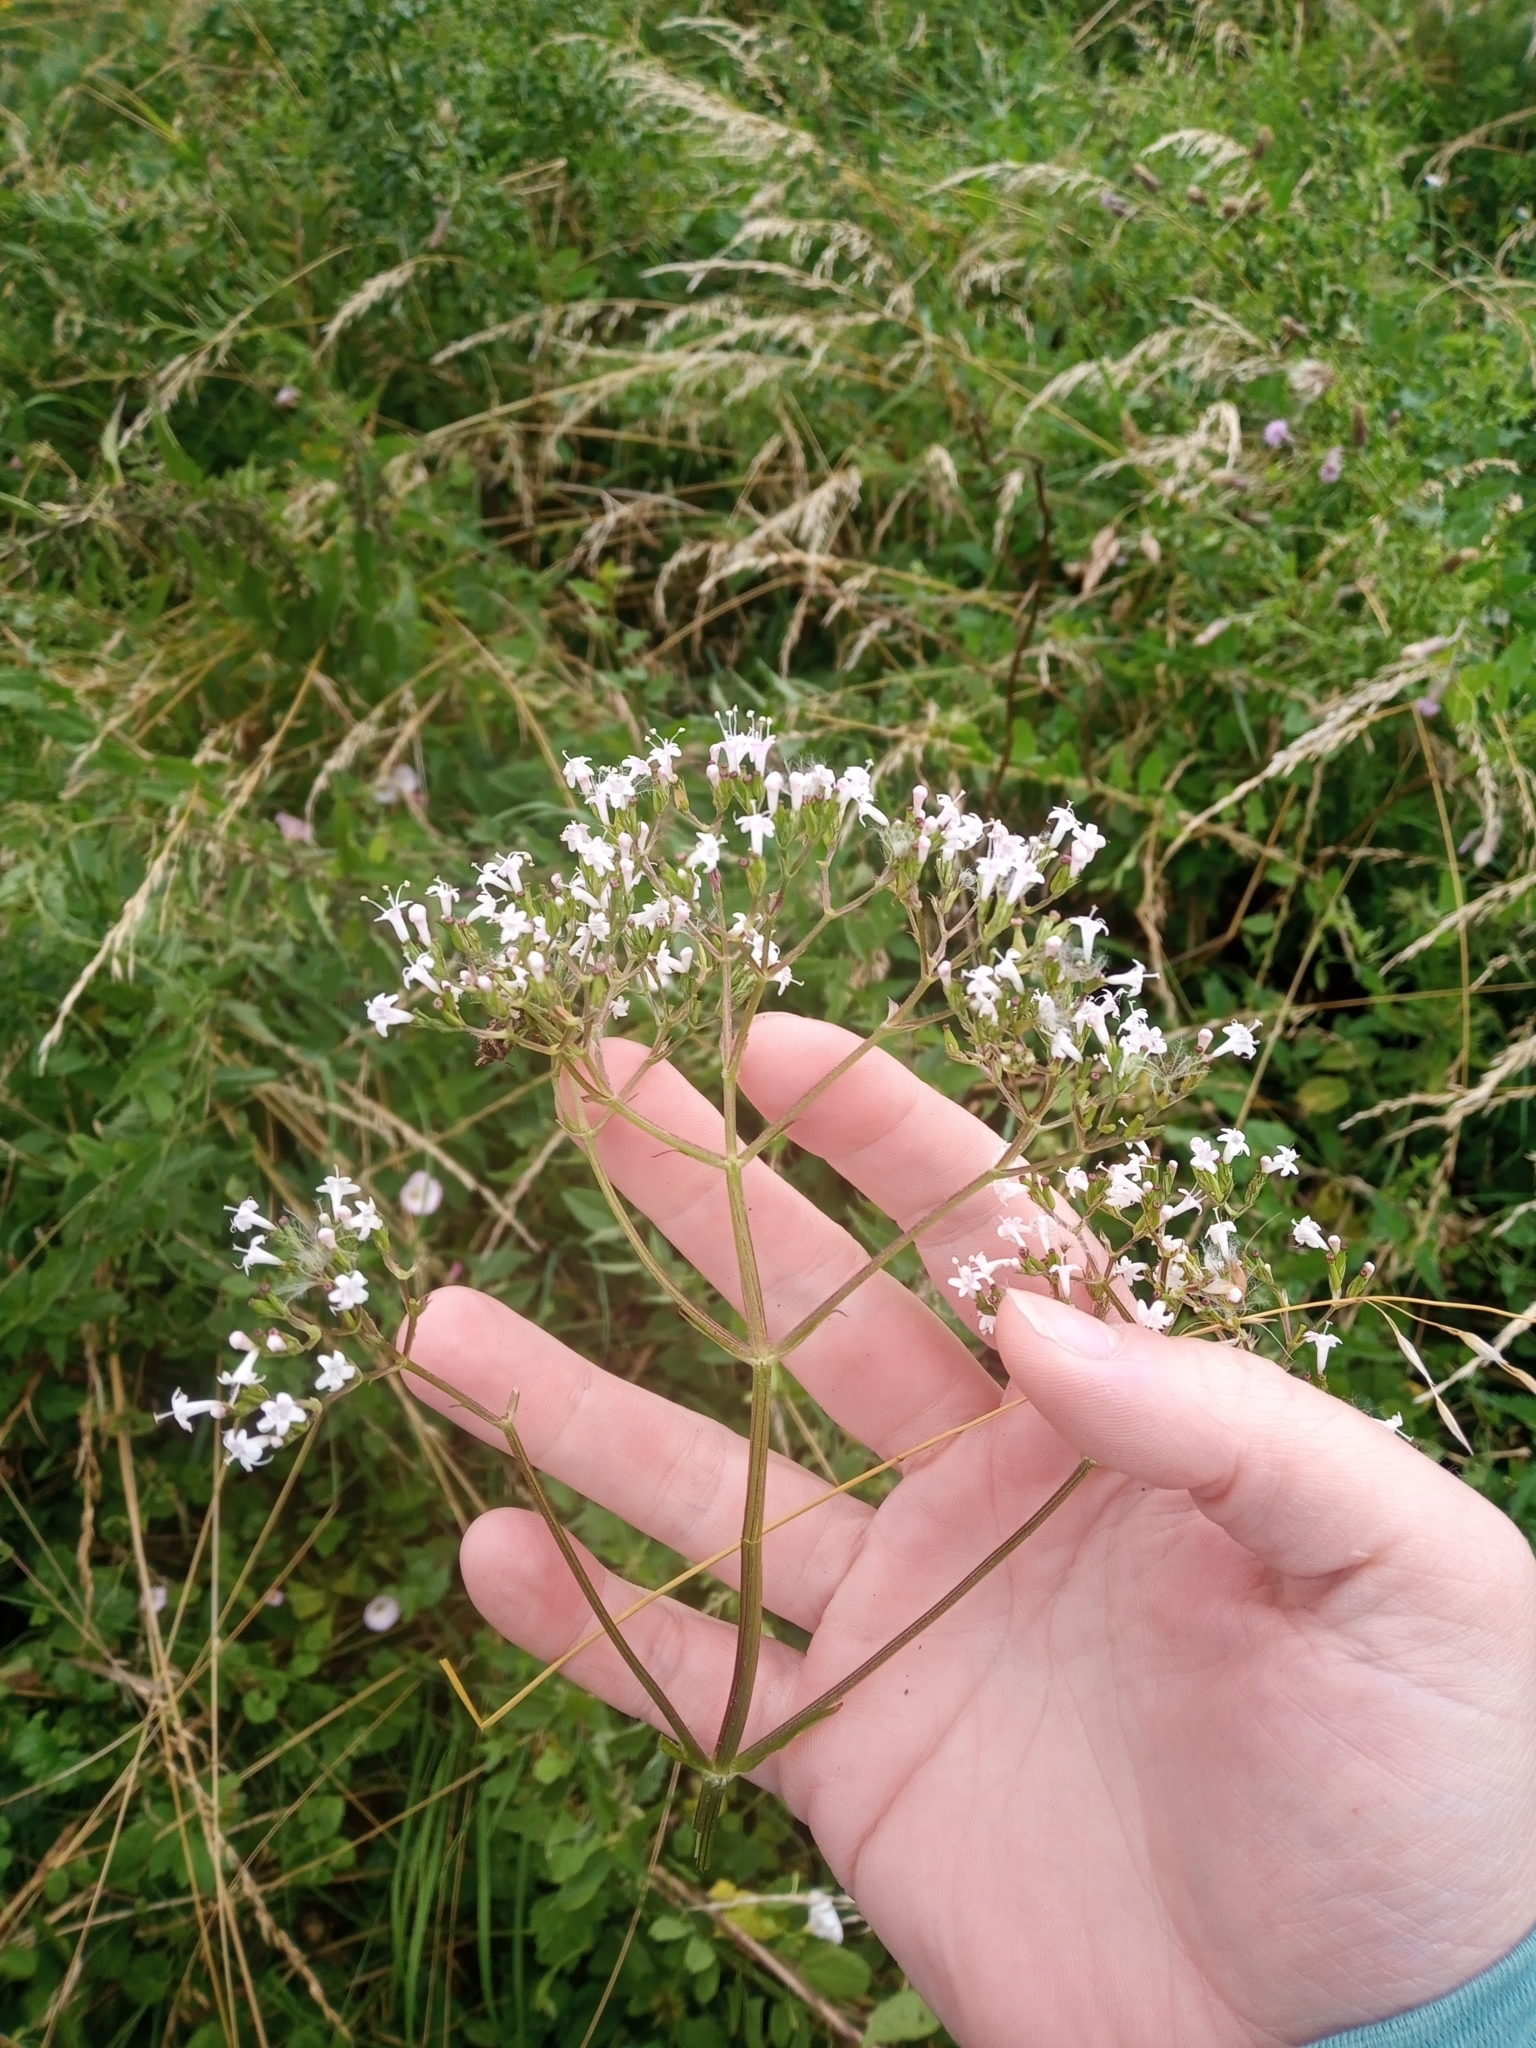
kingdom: Plantae
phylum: Tracheophyta
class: Magnoliopsida
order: Dipsacales
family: Caprifoliaceae
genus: Valeriana
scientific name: Valeriana officinalis
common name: Common valerian
